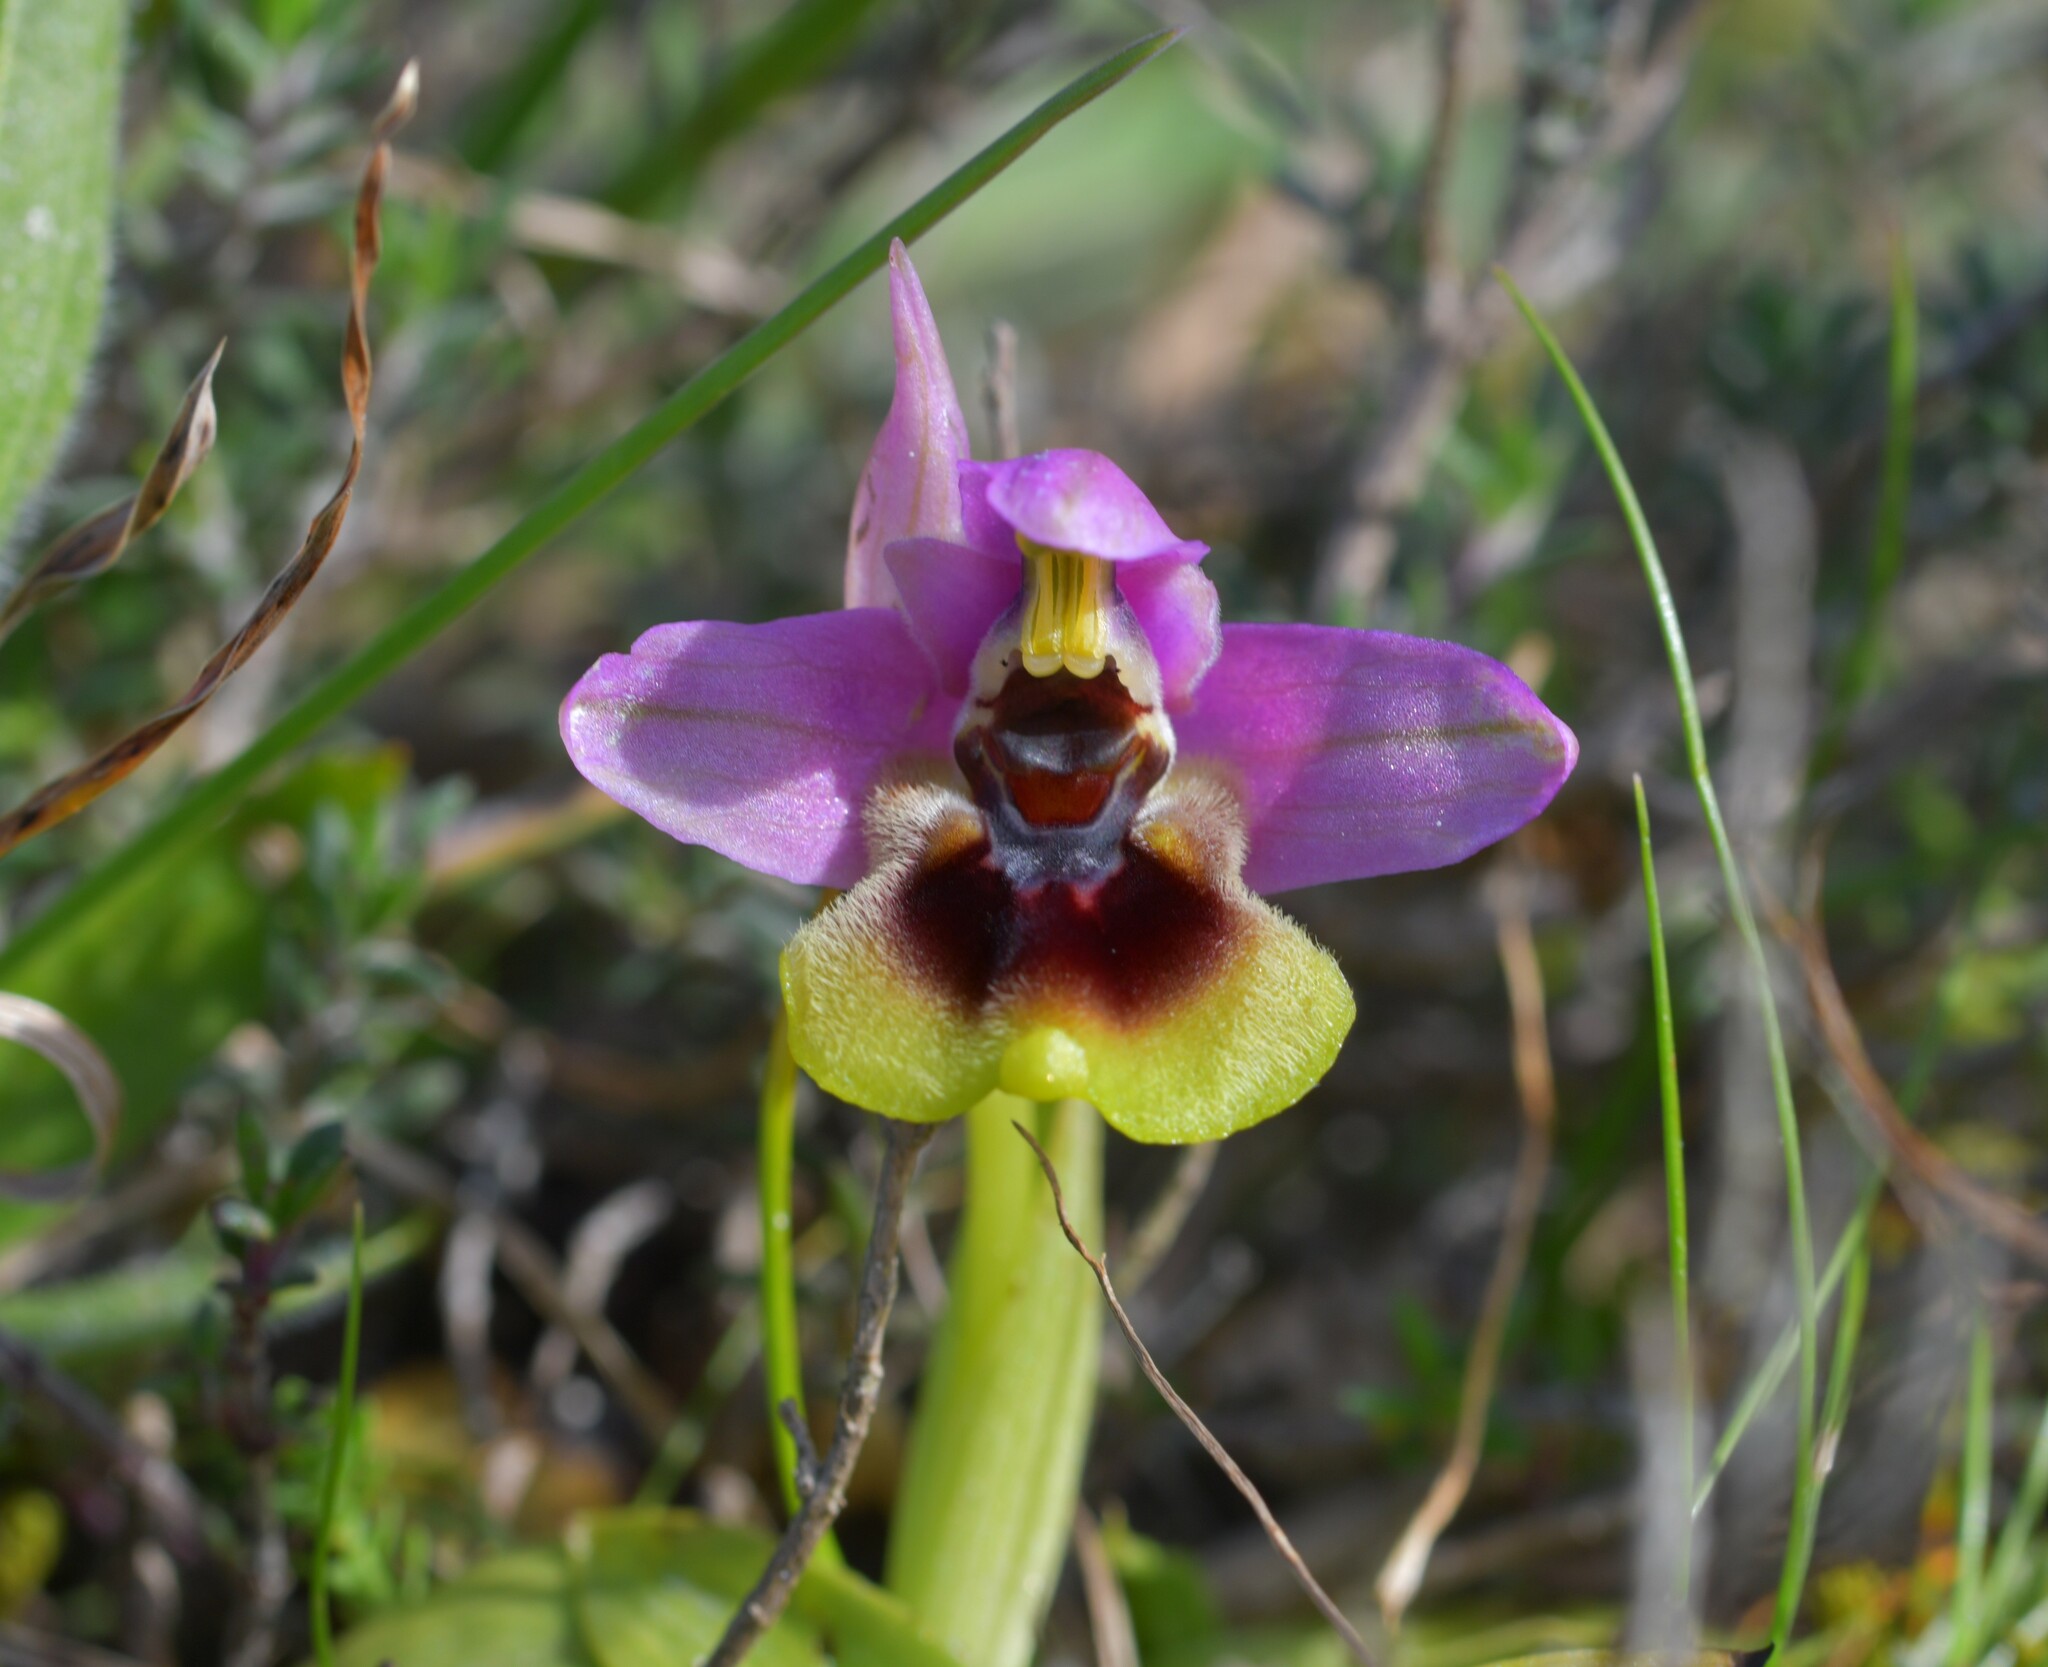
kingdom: Plantae
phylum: Tracheophyta
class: Liliopsida
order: Asparagales
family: Orchidaceae
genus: Ophrys
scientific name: Ophrys tenthredinifera
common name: Sawfly orchid
